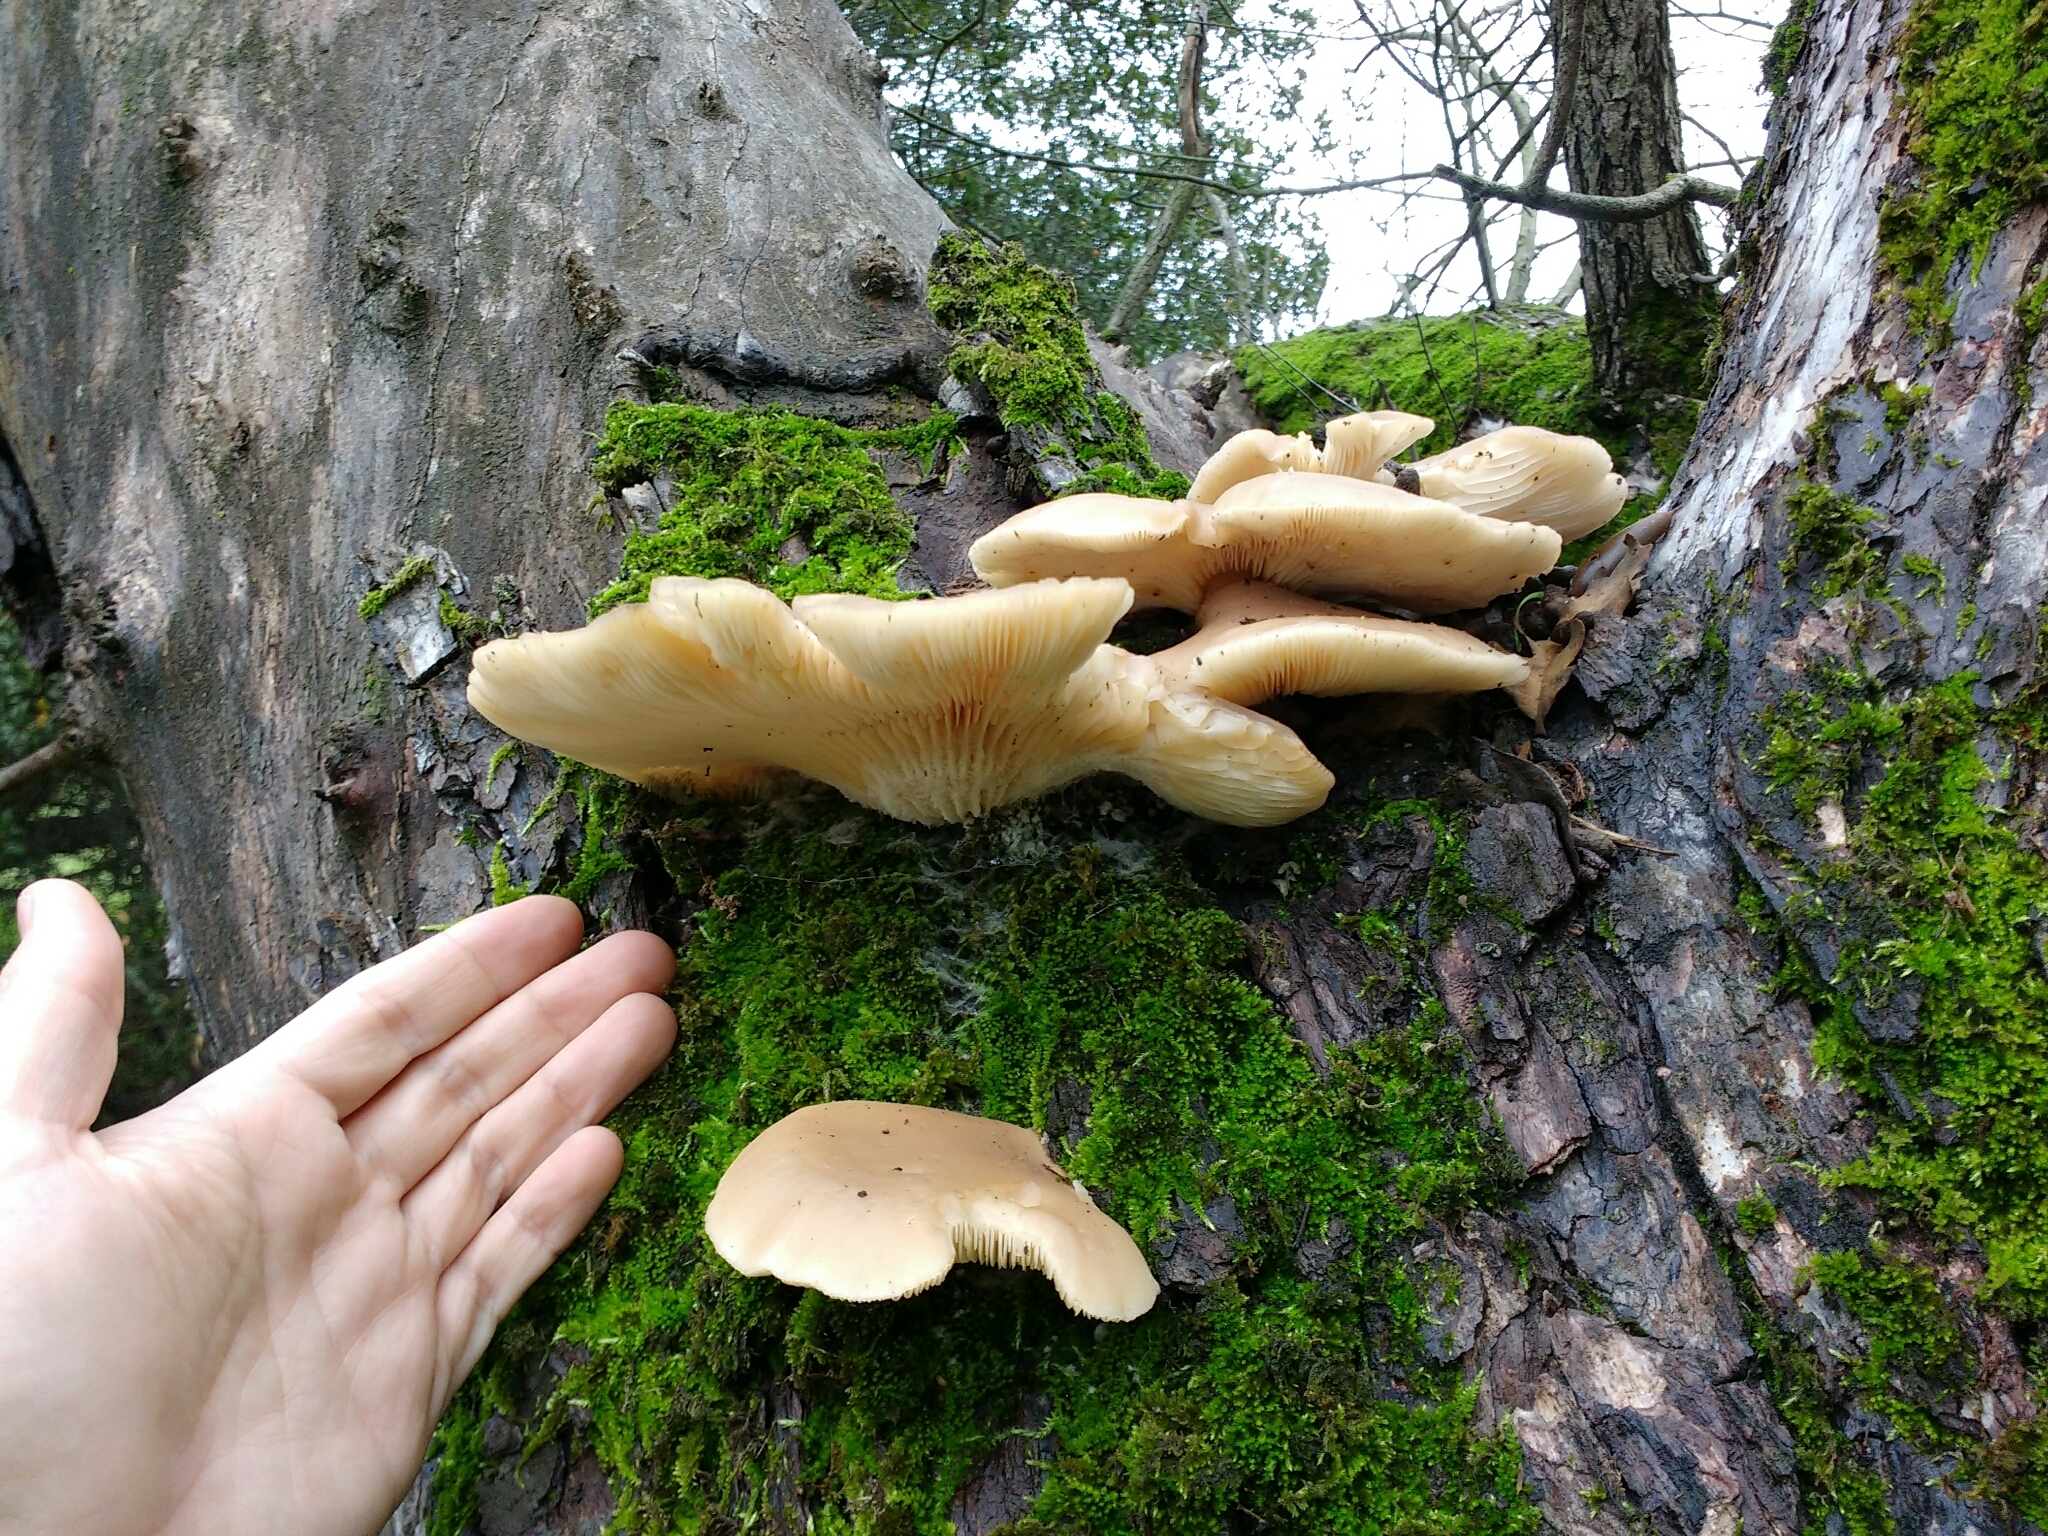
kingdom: Fungi
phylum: Basidiomycota
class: Agaricomycetes
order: Agaricales
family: Pleurotaceae
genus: Pleurotus
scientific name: Pleurotus ostreatus
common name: Oyster mushroom
